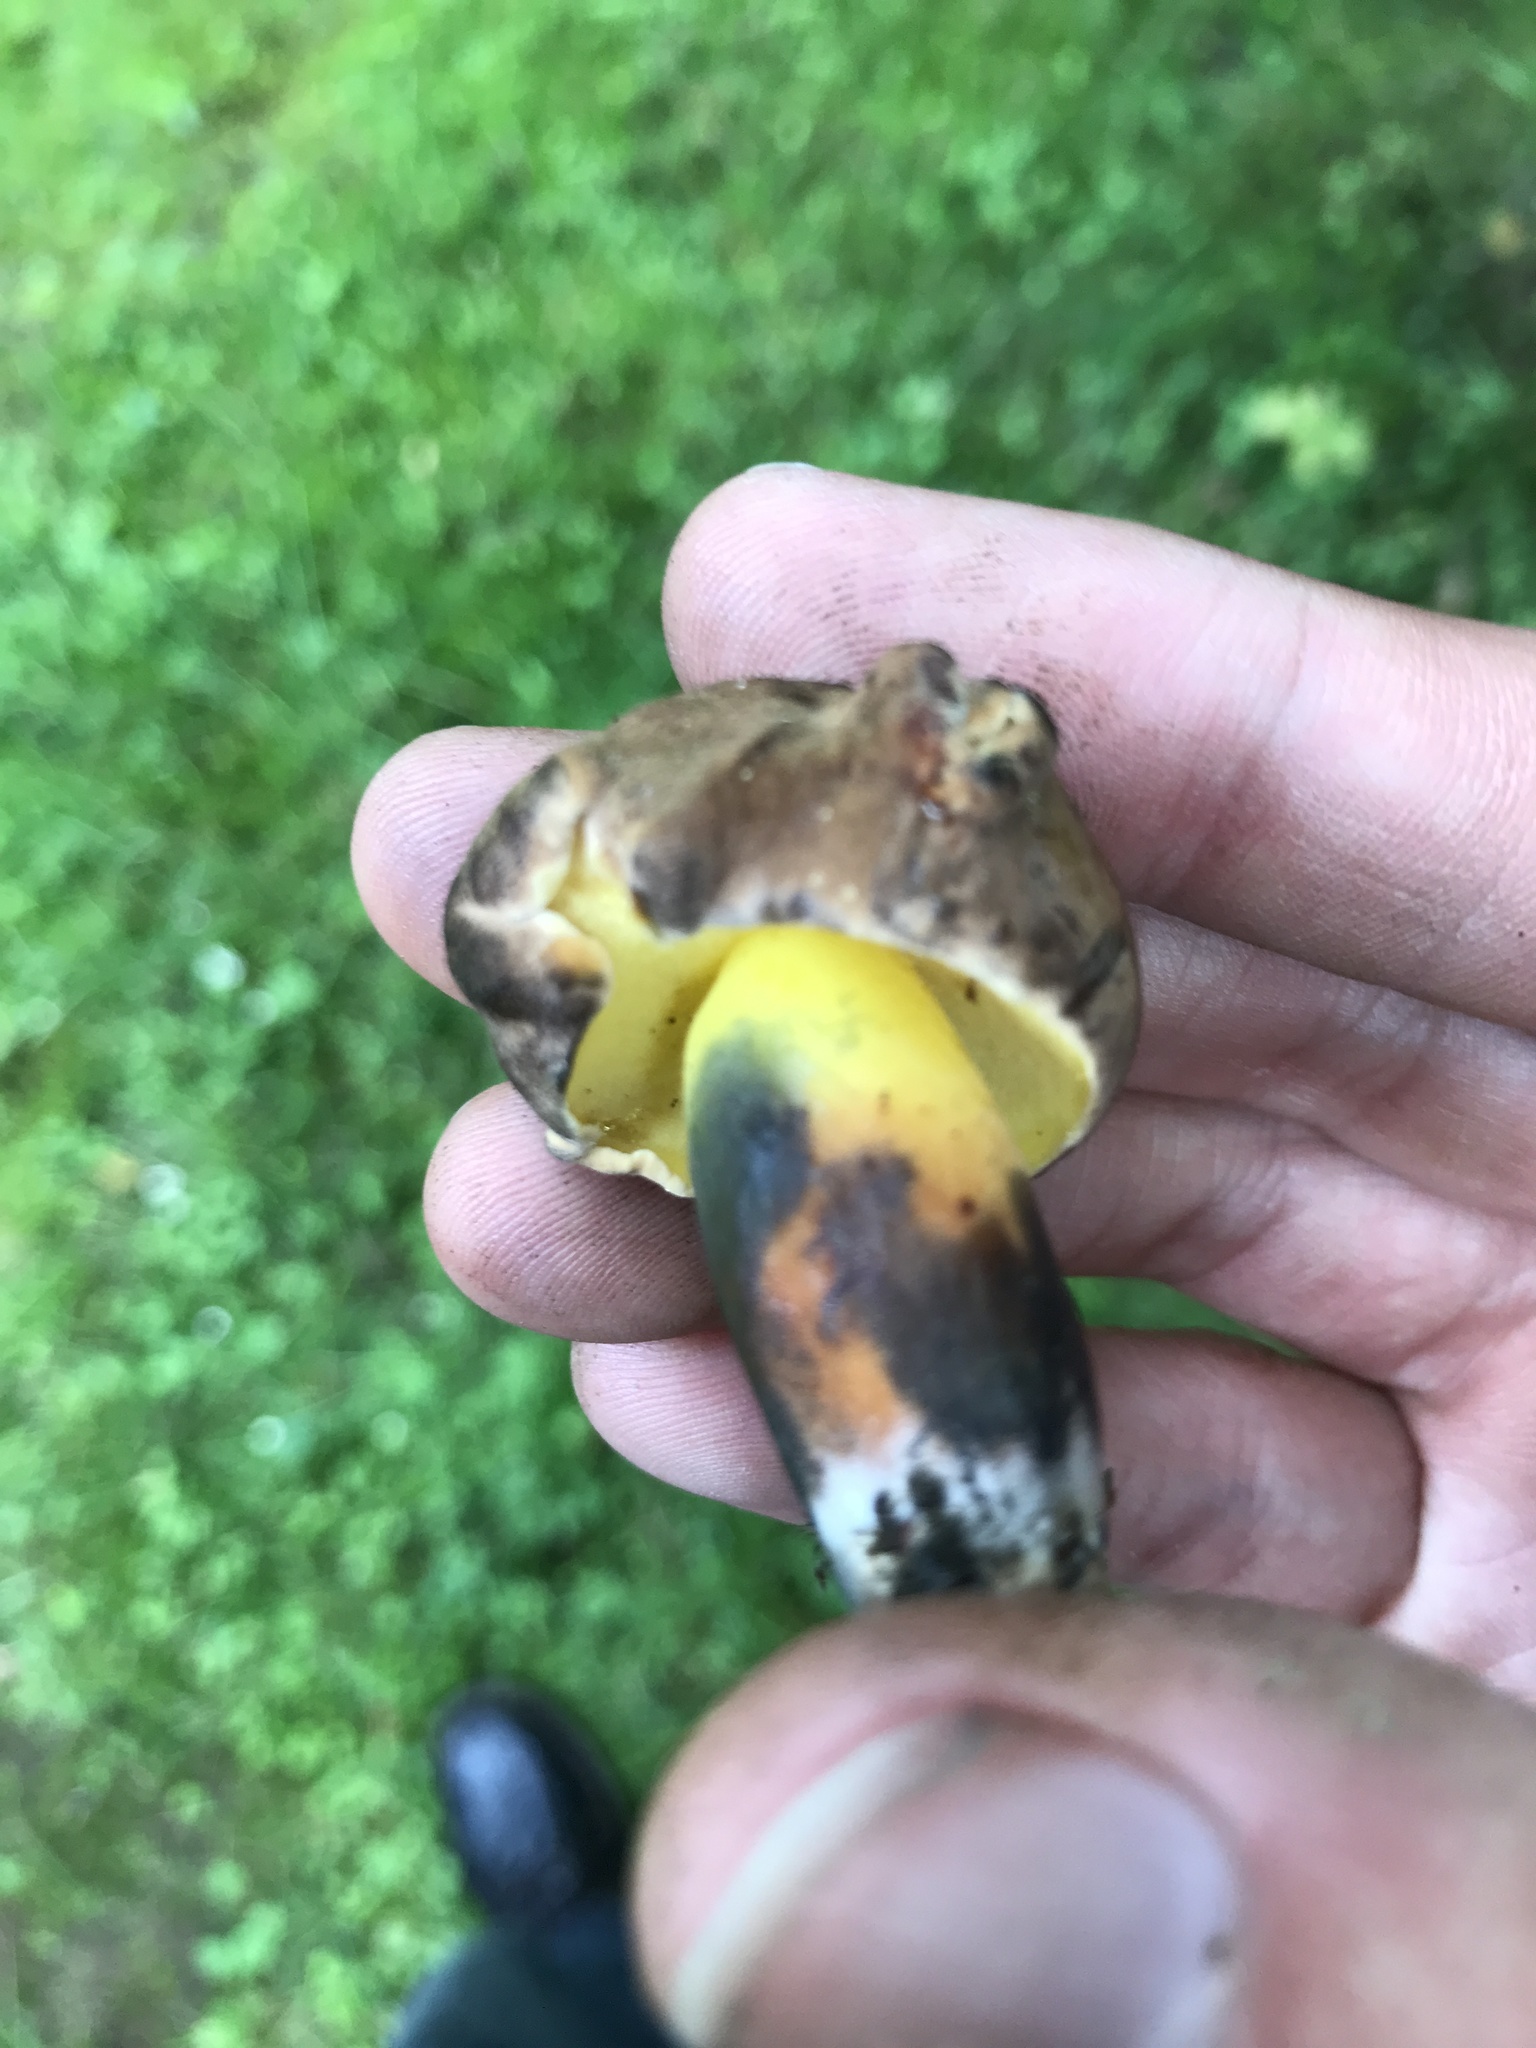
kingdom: Fungi
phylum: Basidiomycota
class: Agaricomycetes
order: Boletales
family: Boletaceae
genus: Cyanoboletus
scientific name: Cyanoboletus pulverulentus
